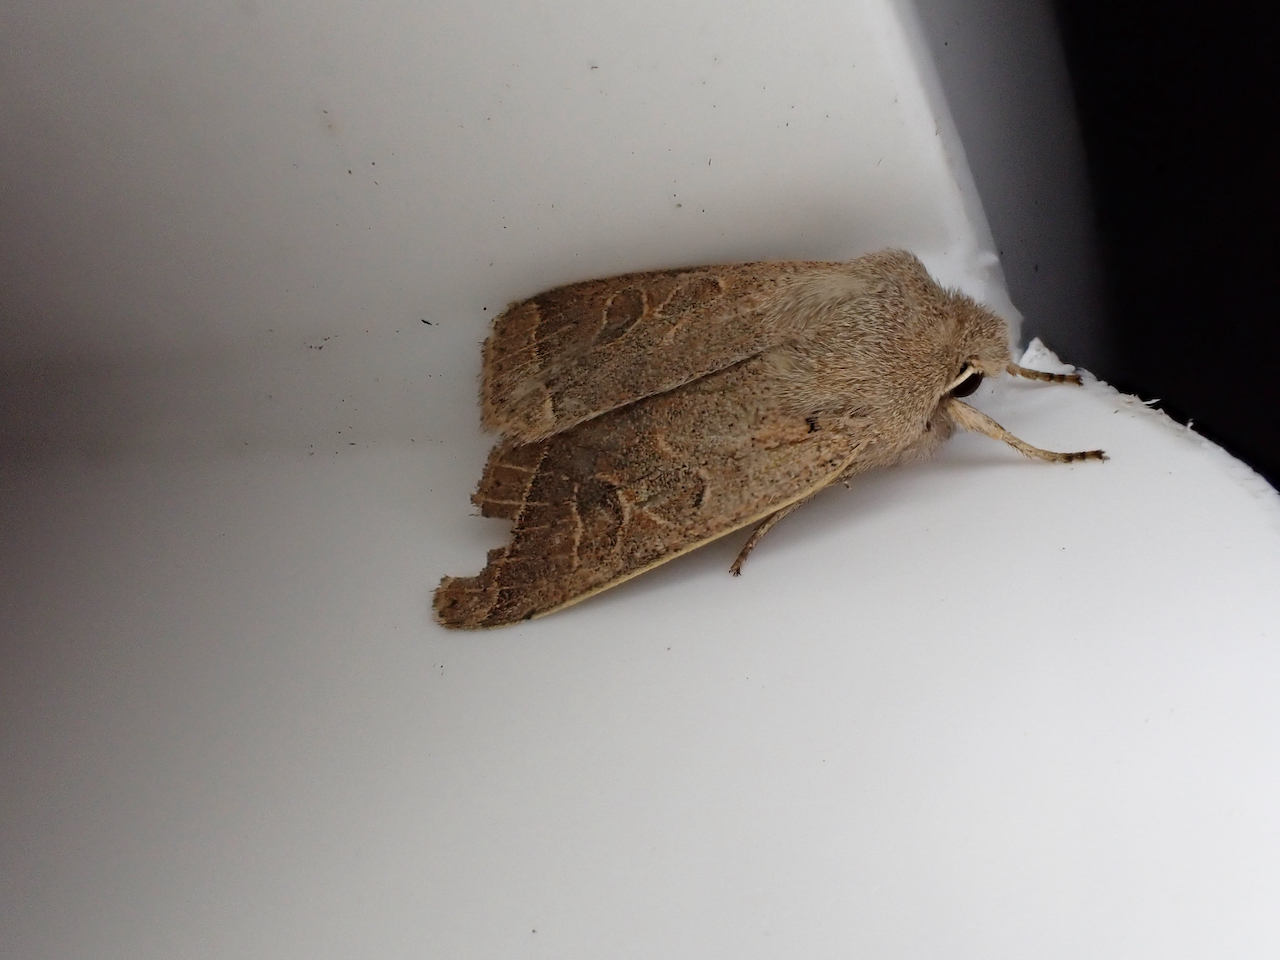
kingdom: Animalia
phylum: Arthropoda
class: Insecta
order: Lepidoptera
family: Noctuidae
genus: Orthosia
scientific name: Orthosia cerasi
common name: Common quaker
